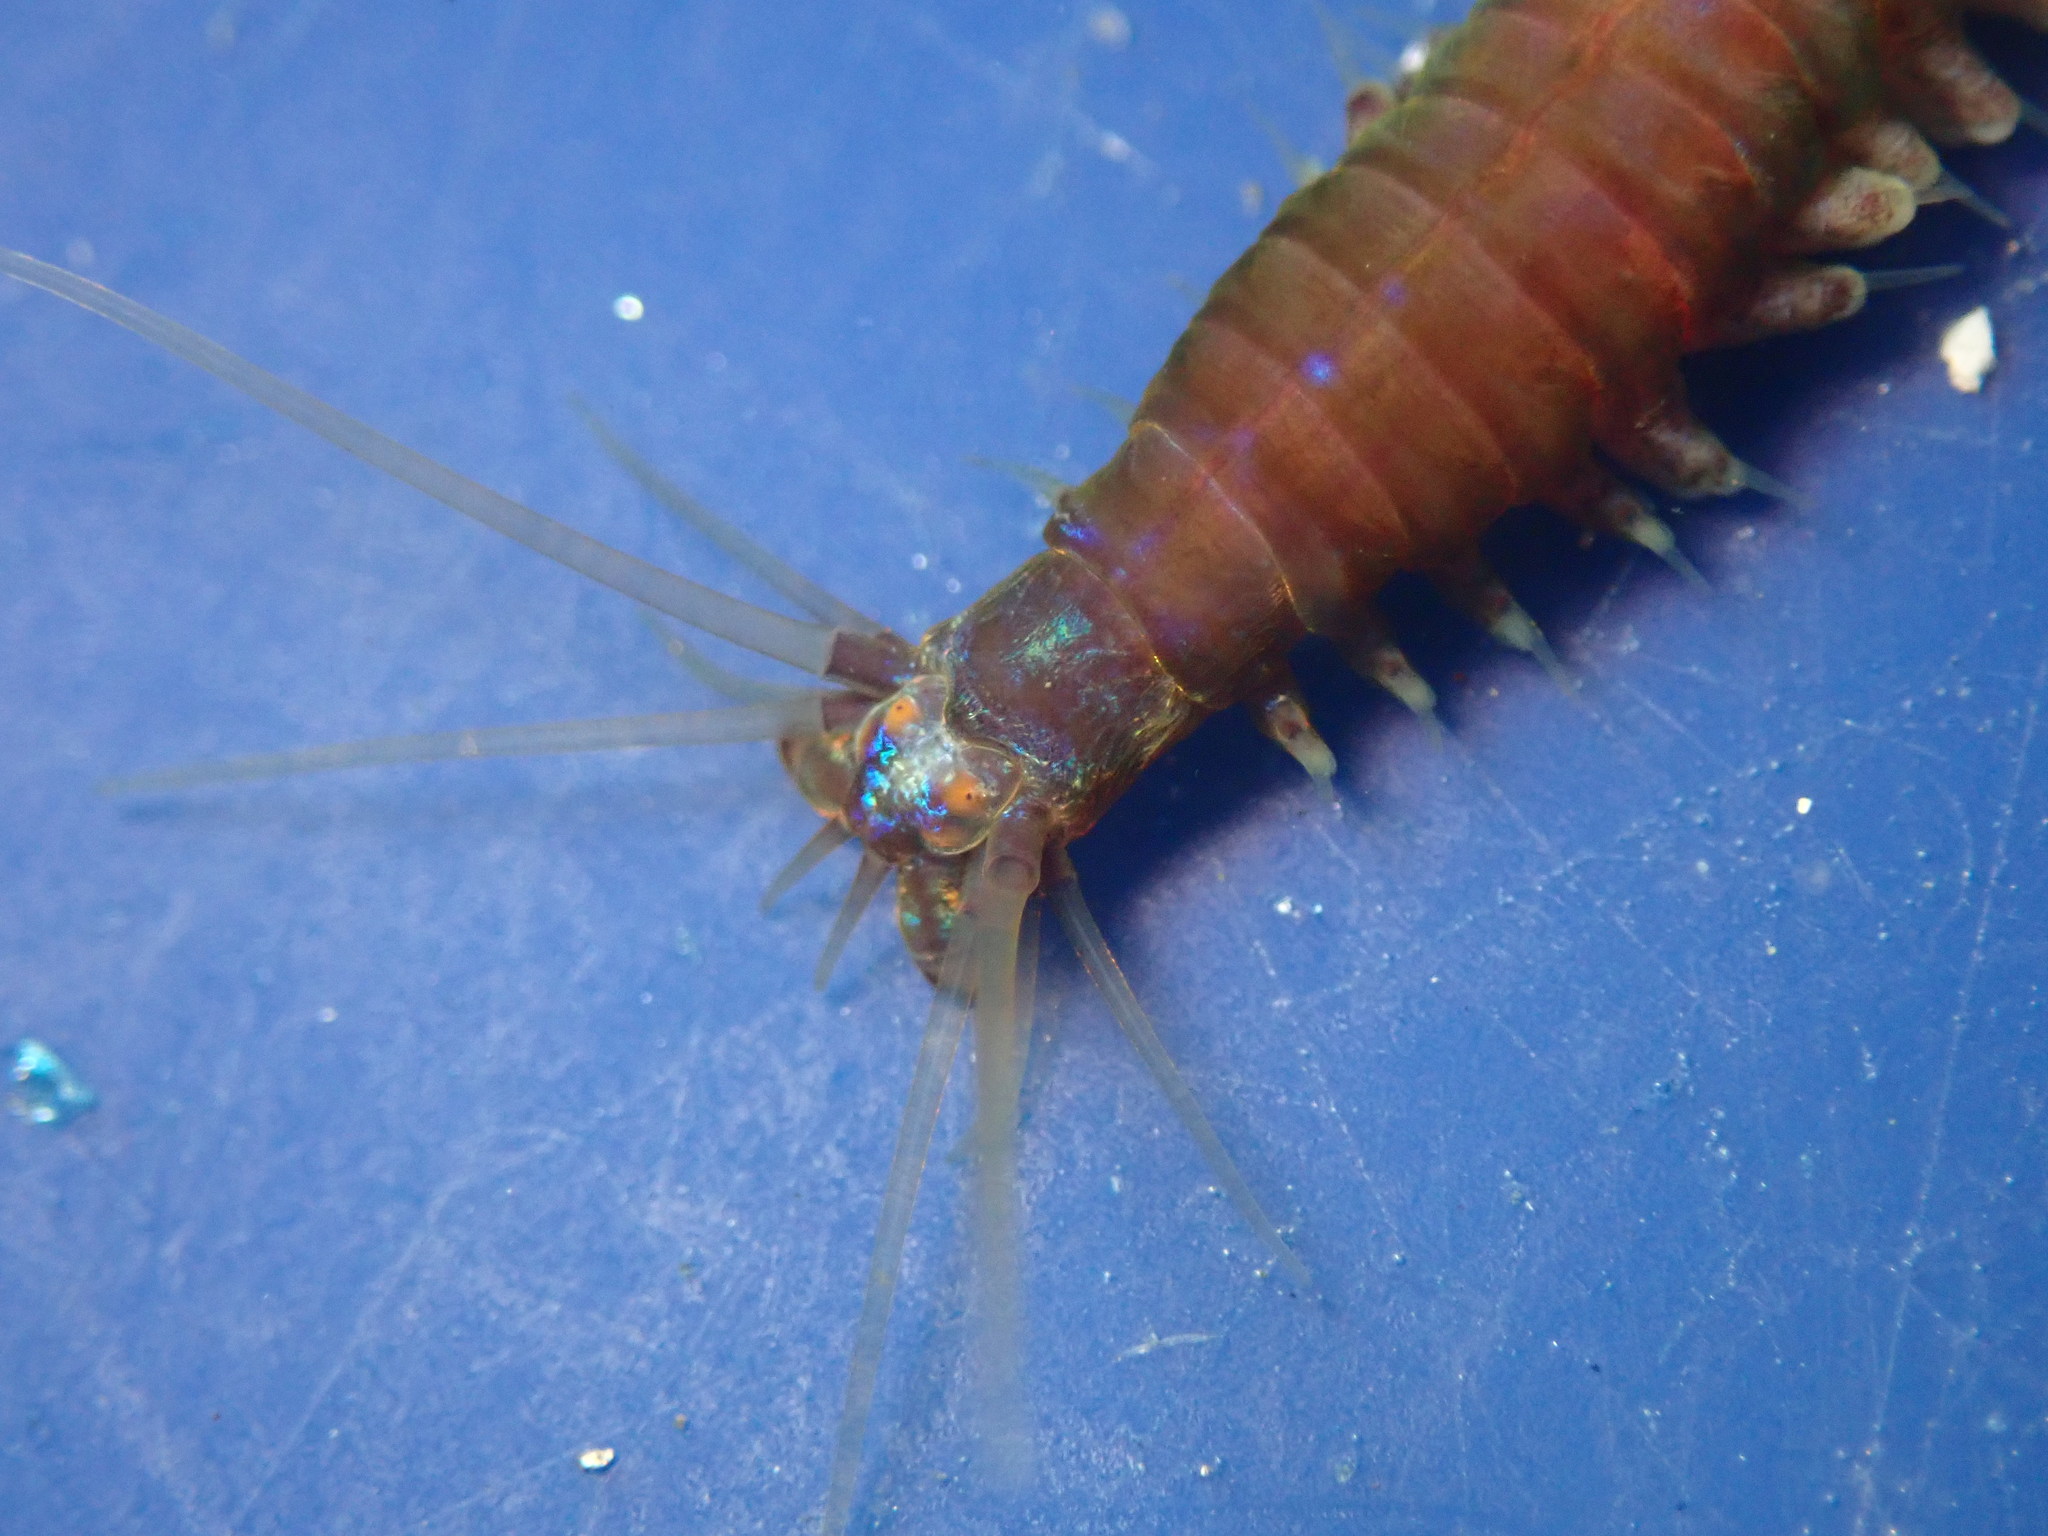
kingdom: Animalia
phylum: Annelida
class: Polychaeta
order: Phyllodocida
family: Nereididae
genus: Platynereis
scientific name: Platynereis bicanaliculata
